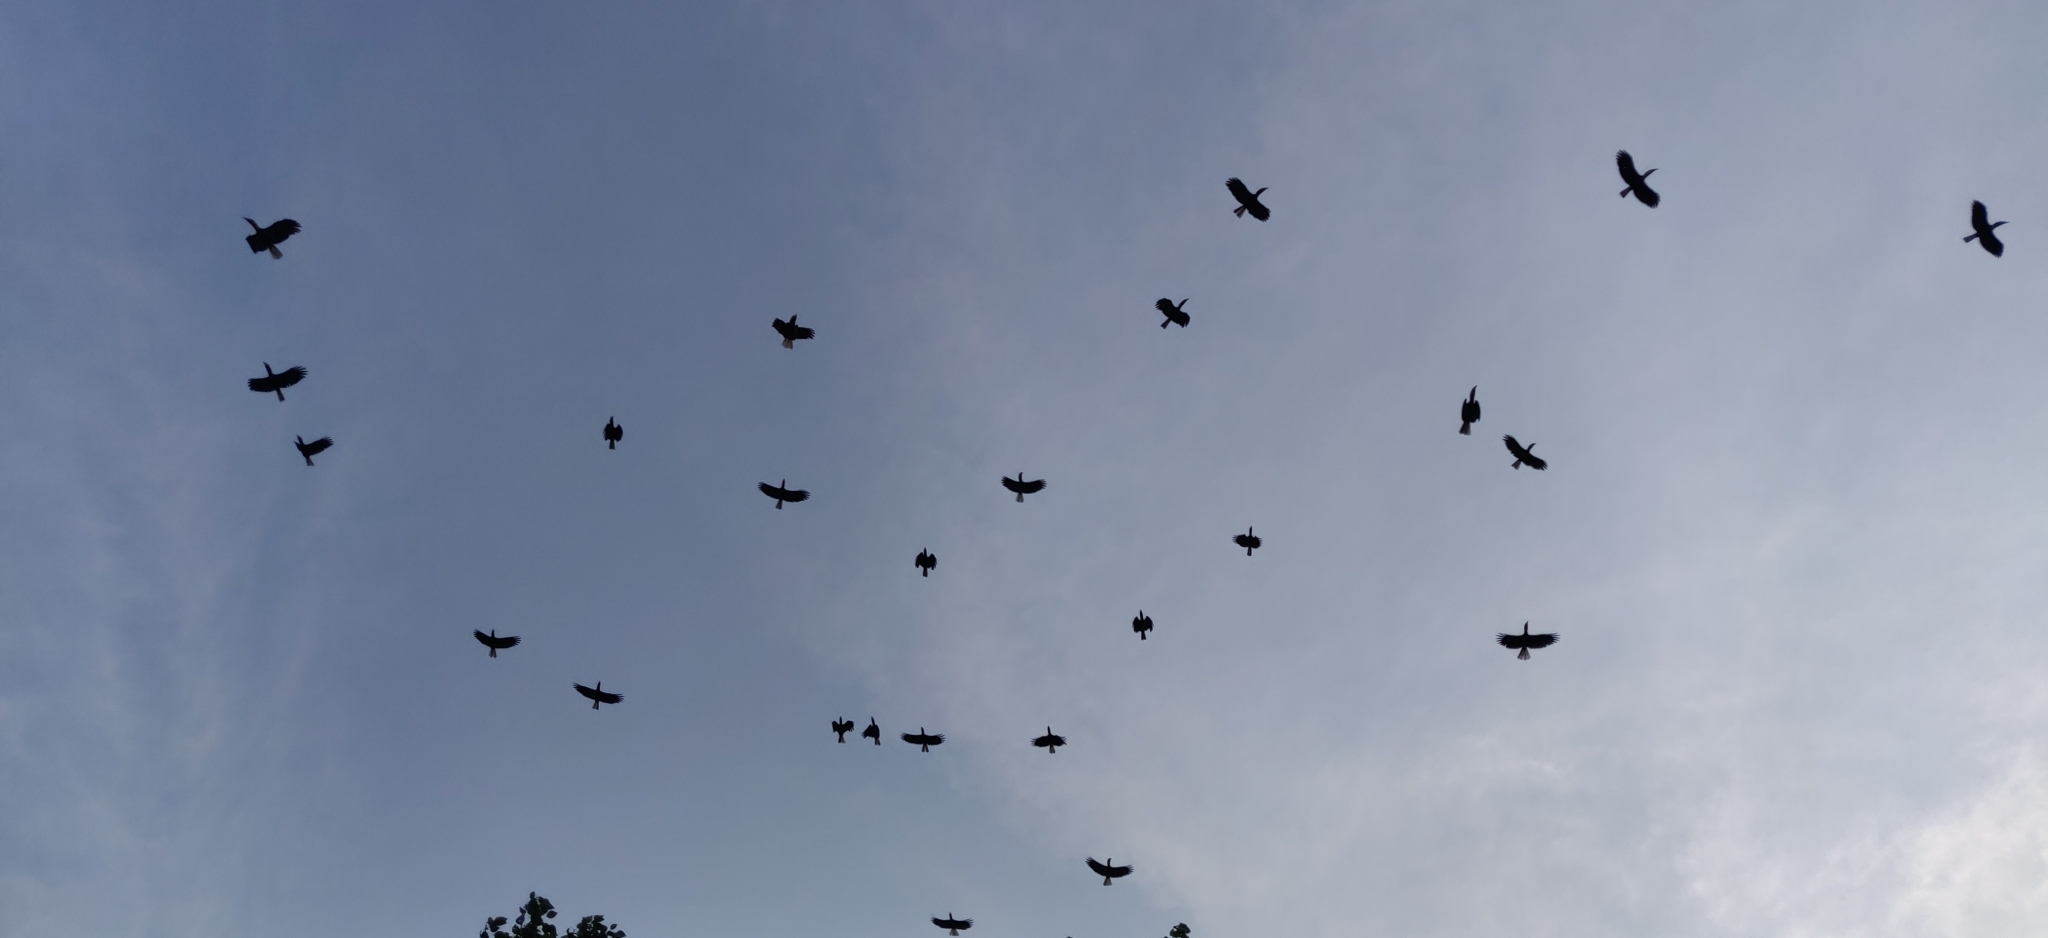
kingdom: Animalia
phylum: Chordata
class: Aves
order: Bucerotiformes
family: Bucerotidae
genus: Rhyticeros
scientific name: Rhyticeros narcondami
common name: Narcondam hornbill
